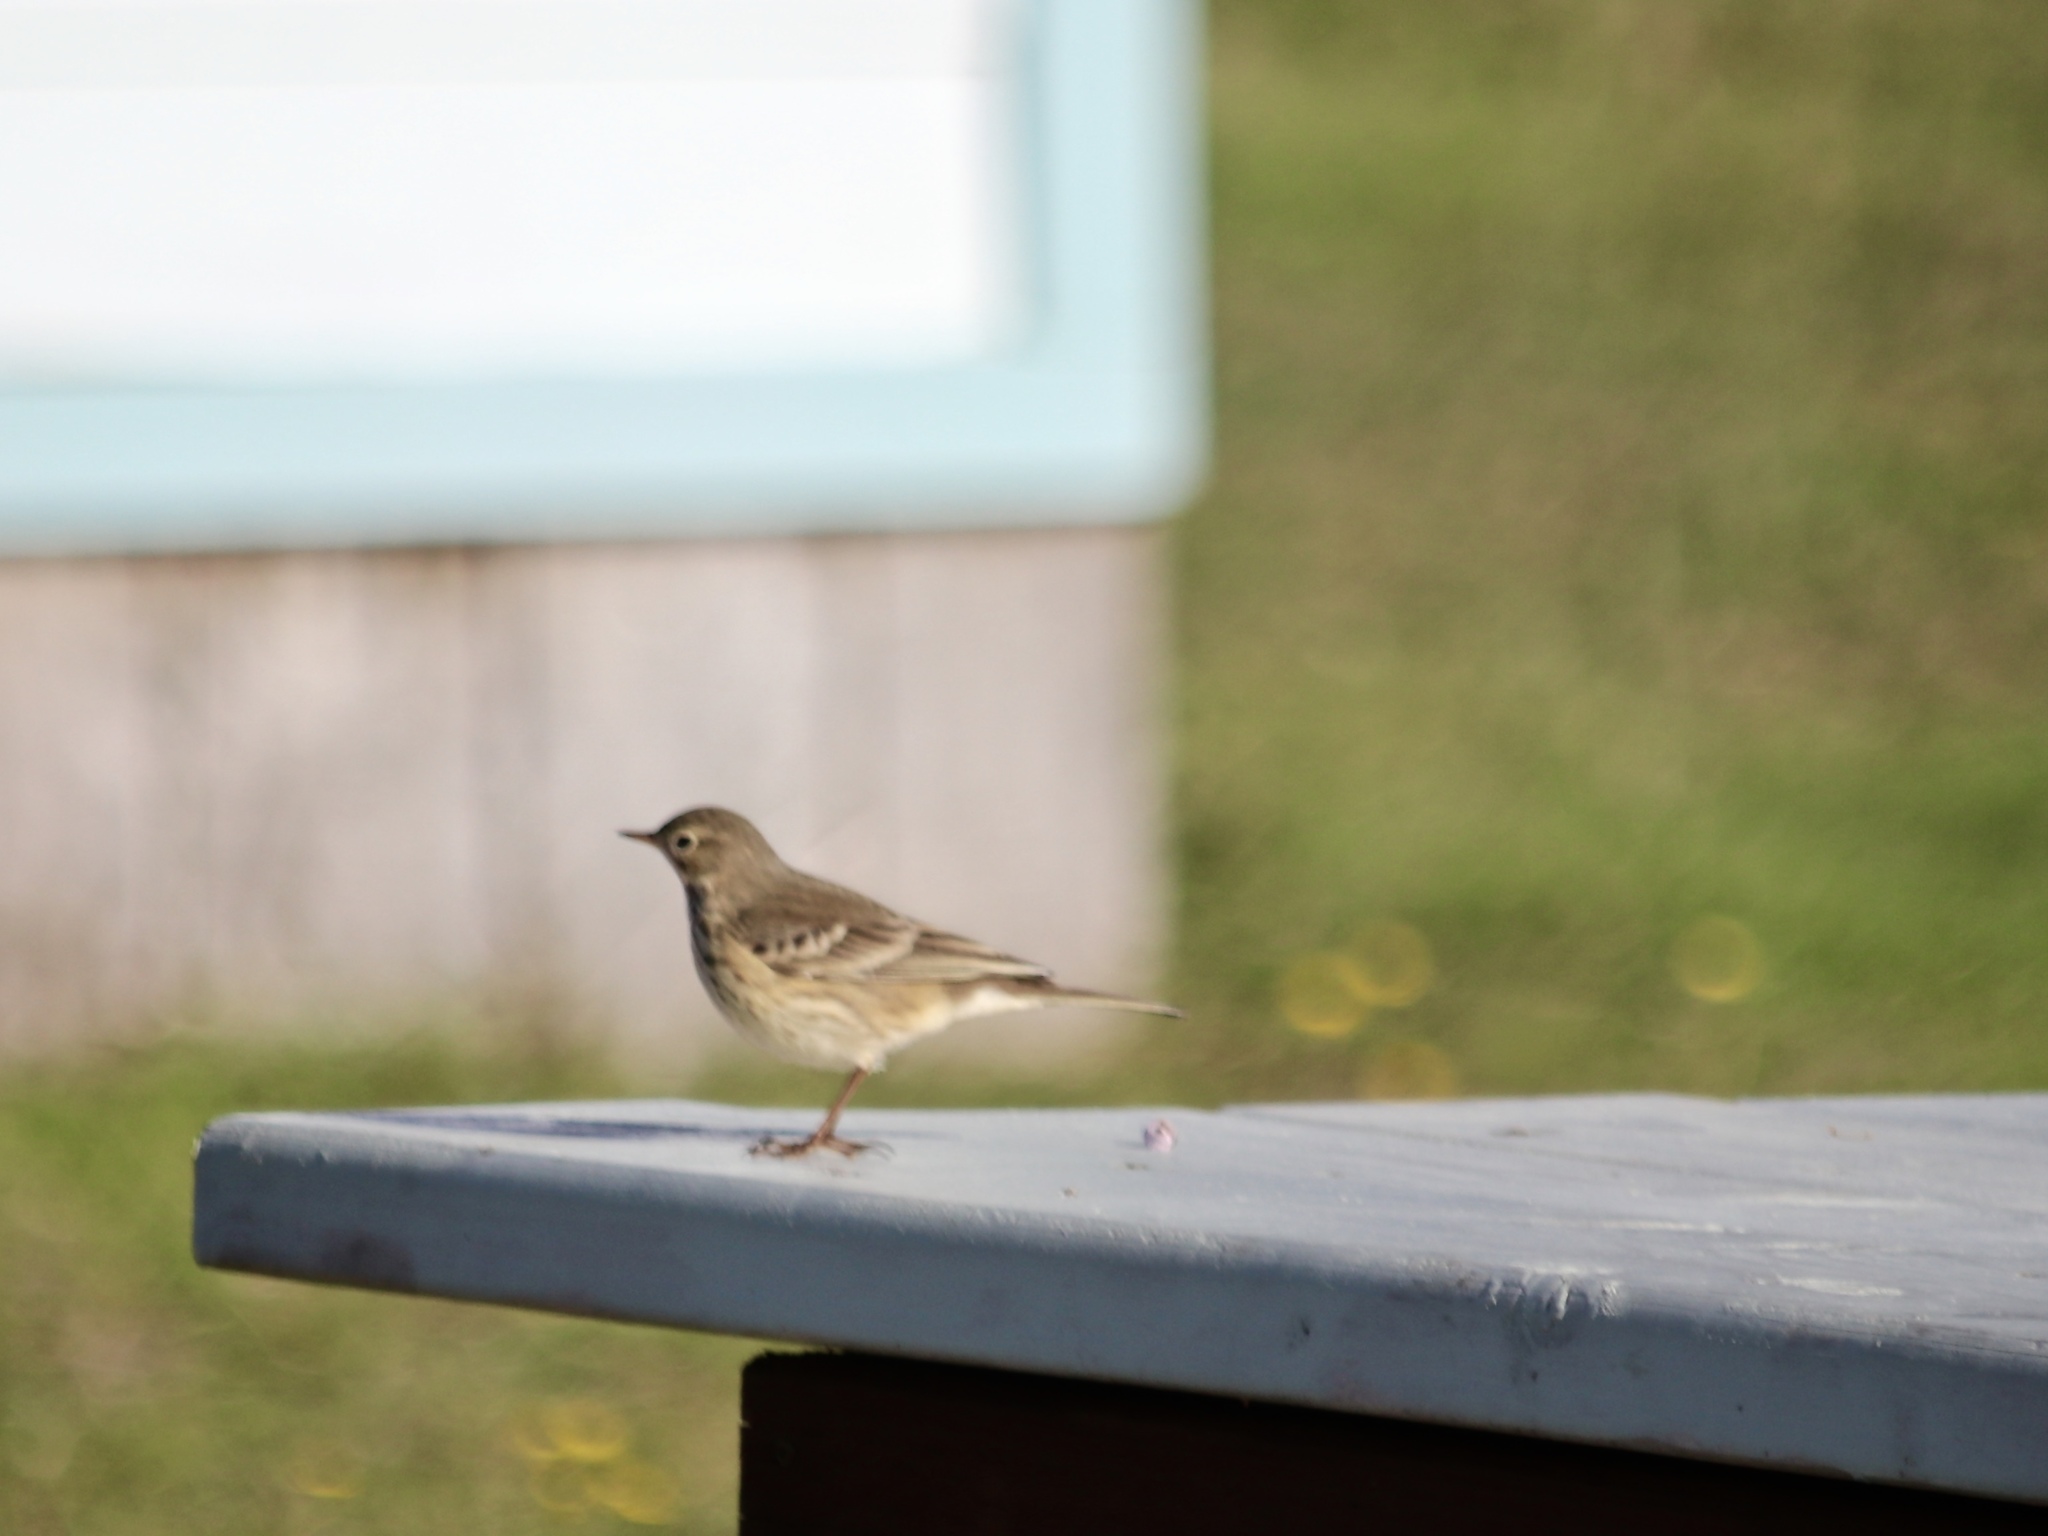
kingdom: Animalia
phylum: Chordata
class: Aves
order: Passeriformes
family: Motacillidae
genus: Anthus
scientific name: Anthus rubescens
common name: Buff-bellied pipit
